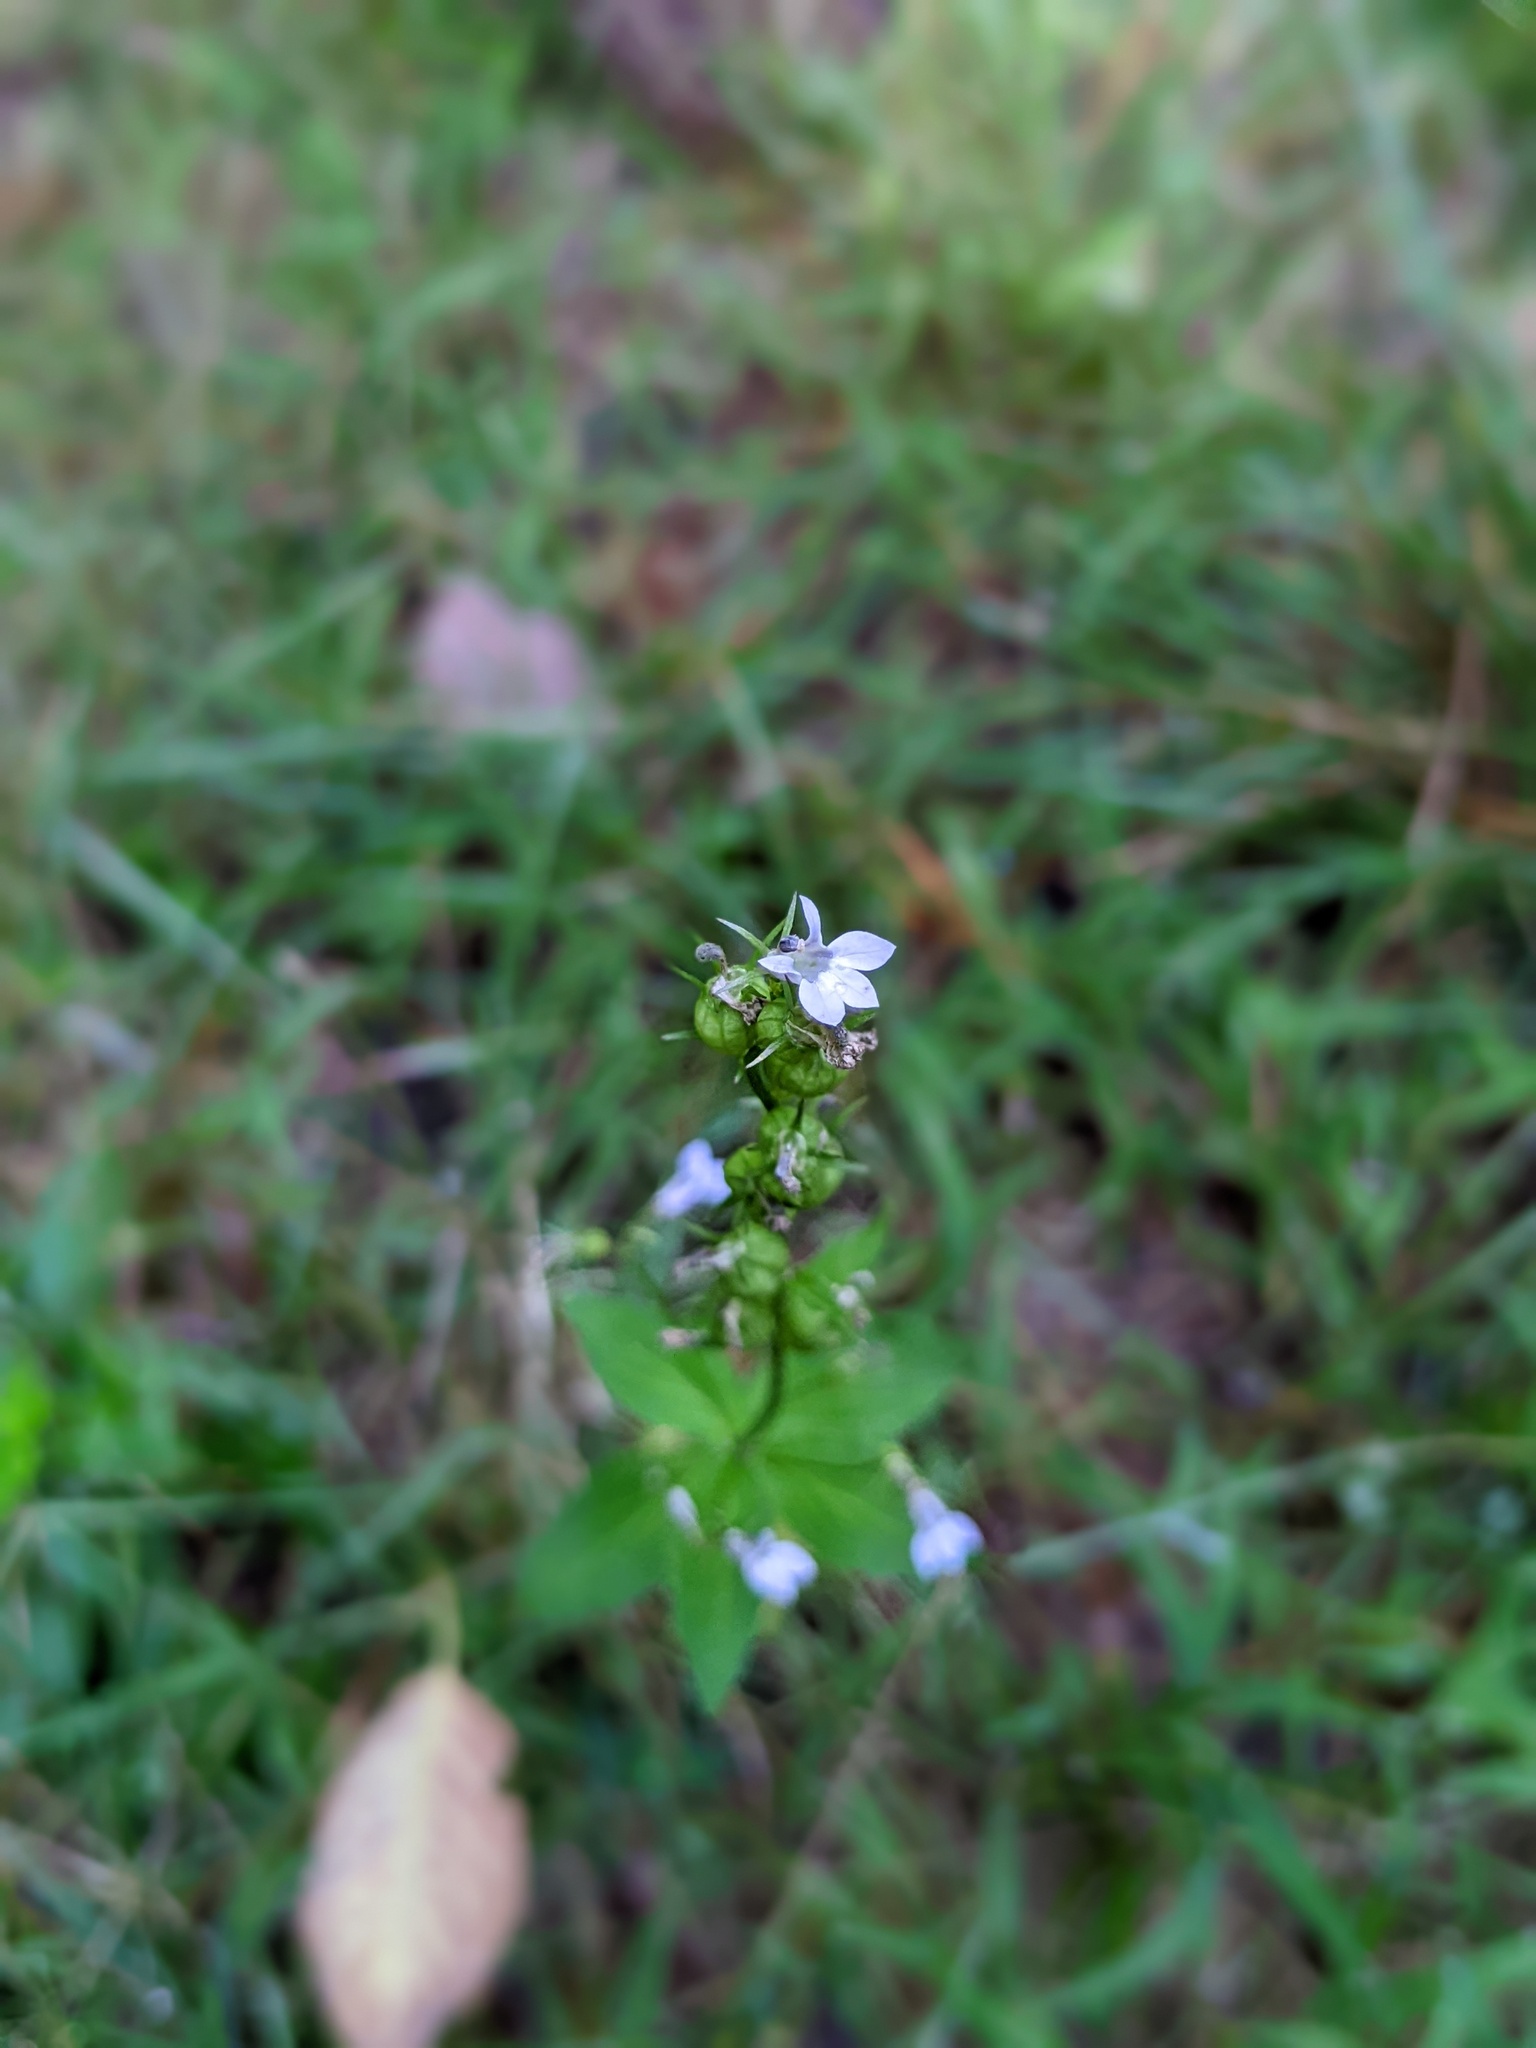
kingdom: Plantae
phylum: Tracheophyta
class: Magnoliopsida
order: Asterales
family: Campanulaceae
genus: Lobelia
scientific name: Lobelia inflata
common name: Indian tobacco
